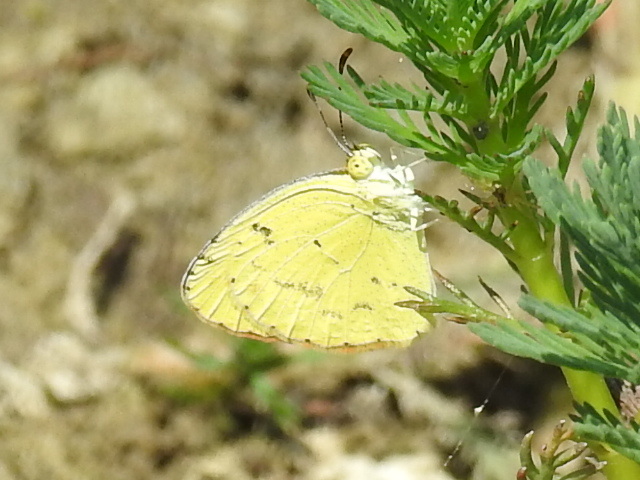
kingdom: Animalia
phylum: Arthropoda
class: Insecta
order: Lepidoptera
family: Pieridae
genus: Pyrisitia
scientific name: Pyrisitia lisa
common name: Little yellow
